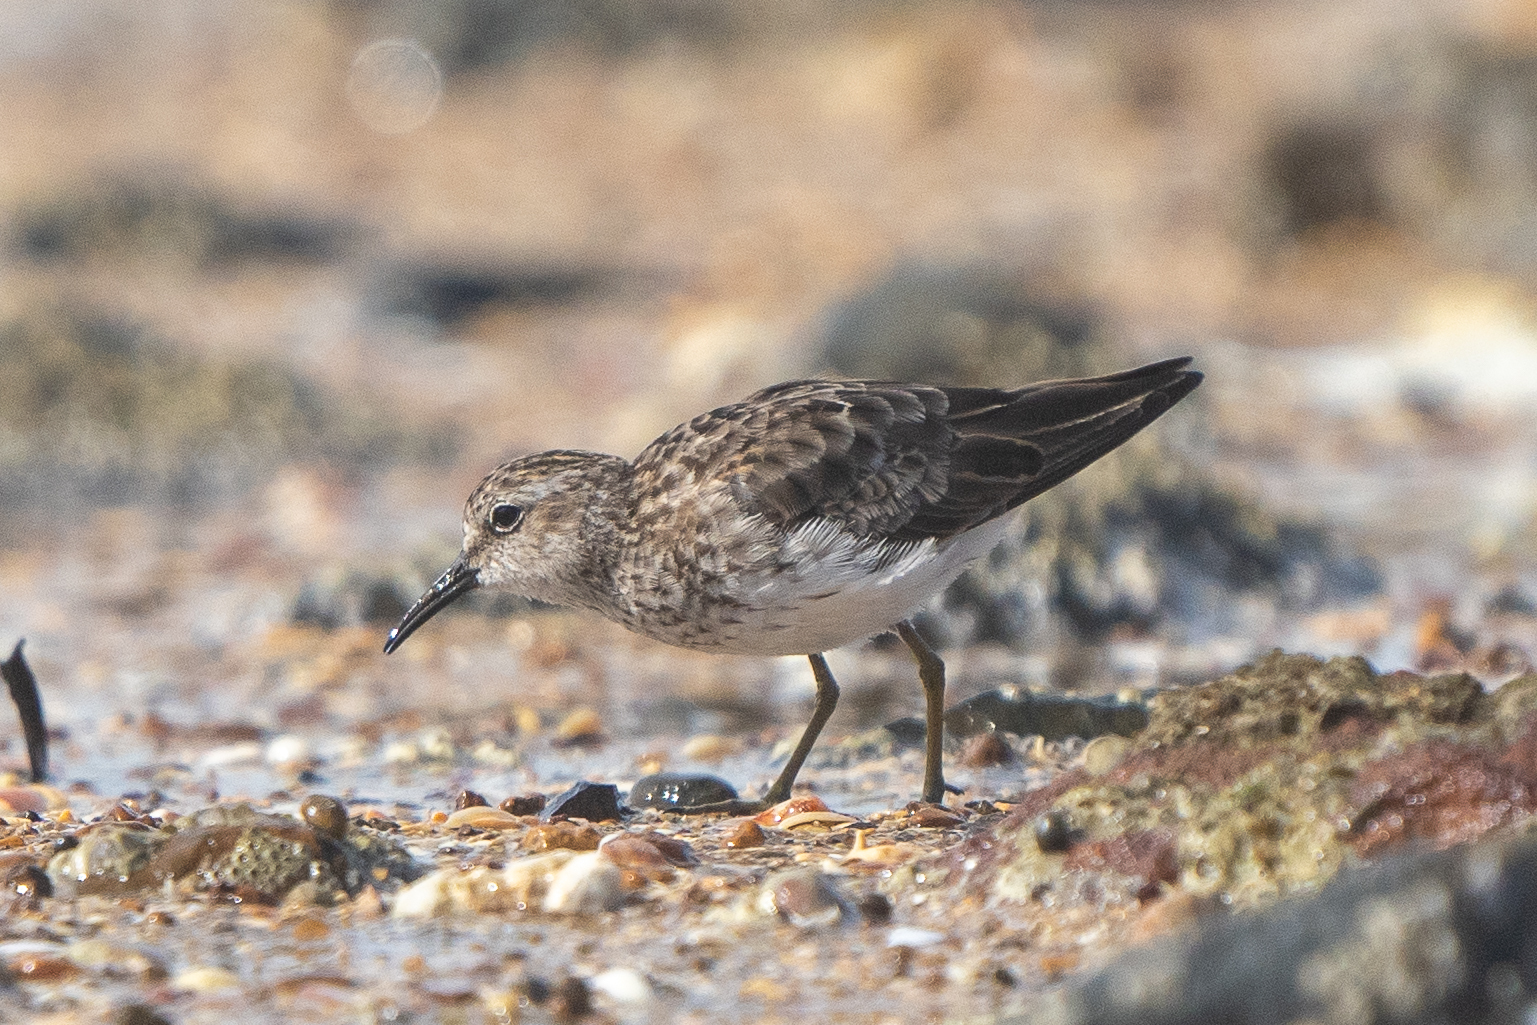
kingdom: Animalia
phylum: Chordata
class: Aves
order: Charadriiformes
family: Scolopacidae
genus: Calidris
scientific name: Calidris minutilla
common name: Least sandpiper
